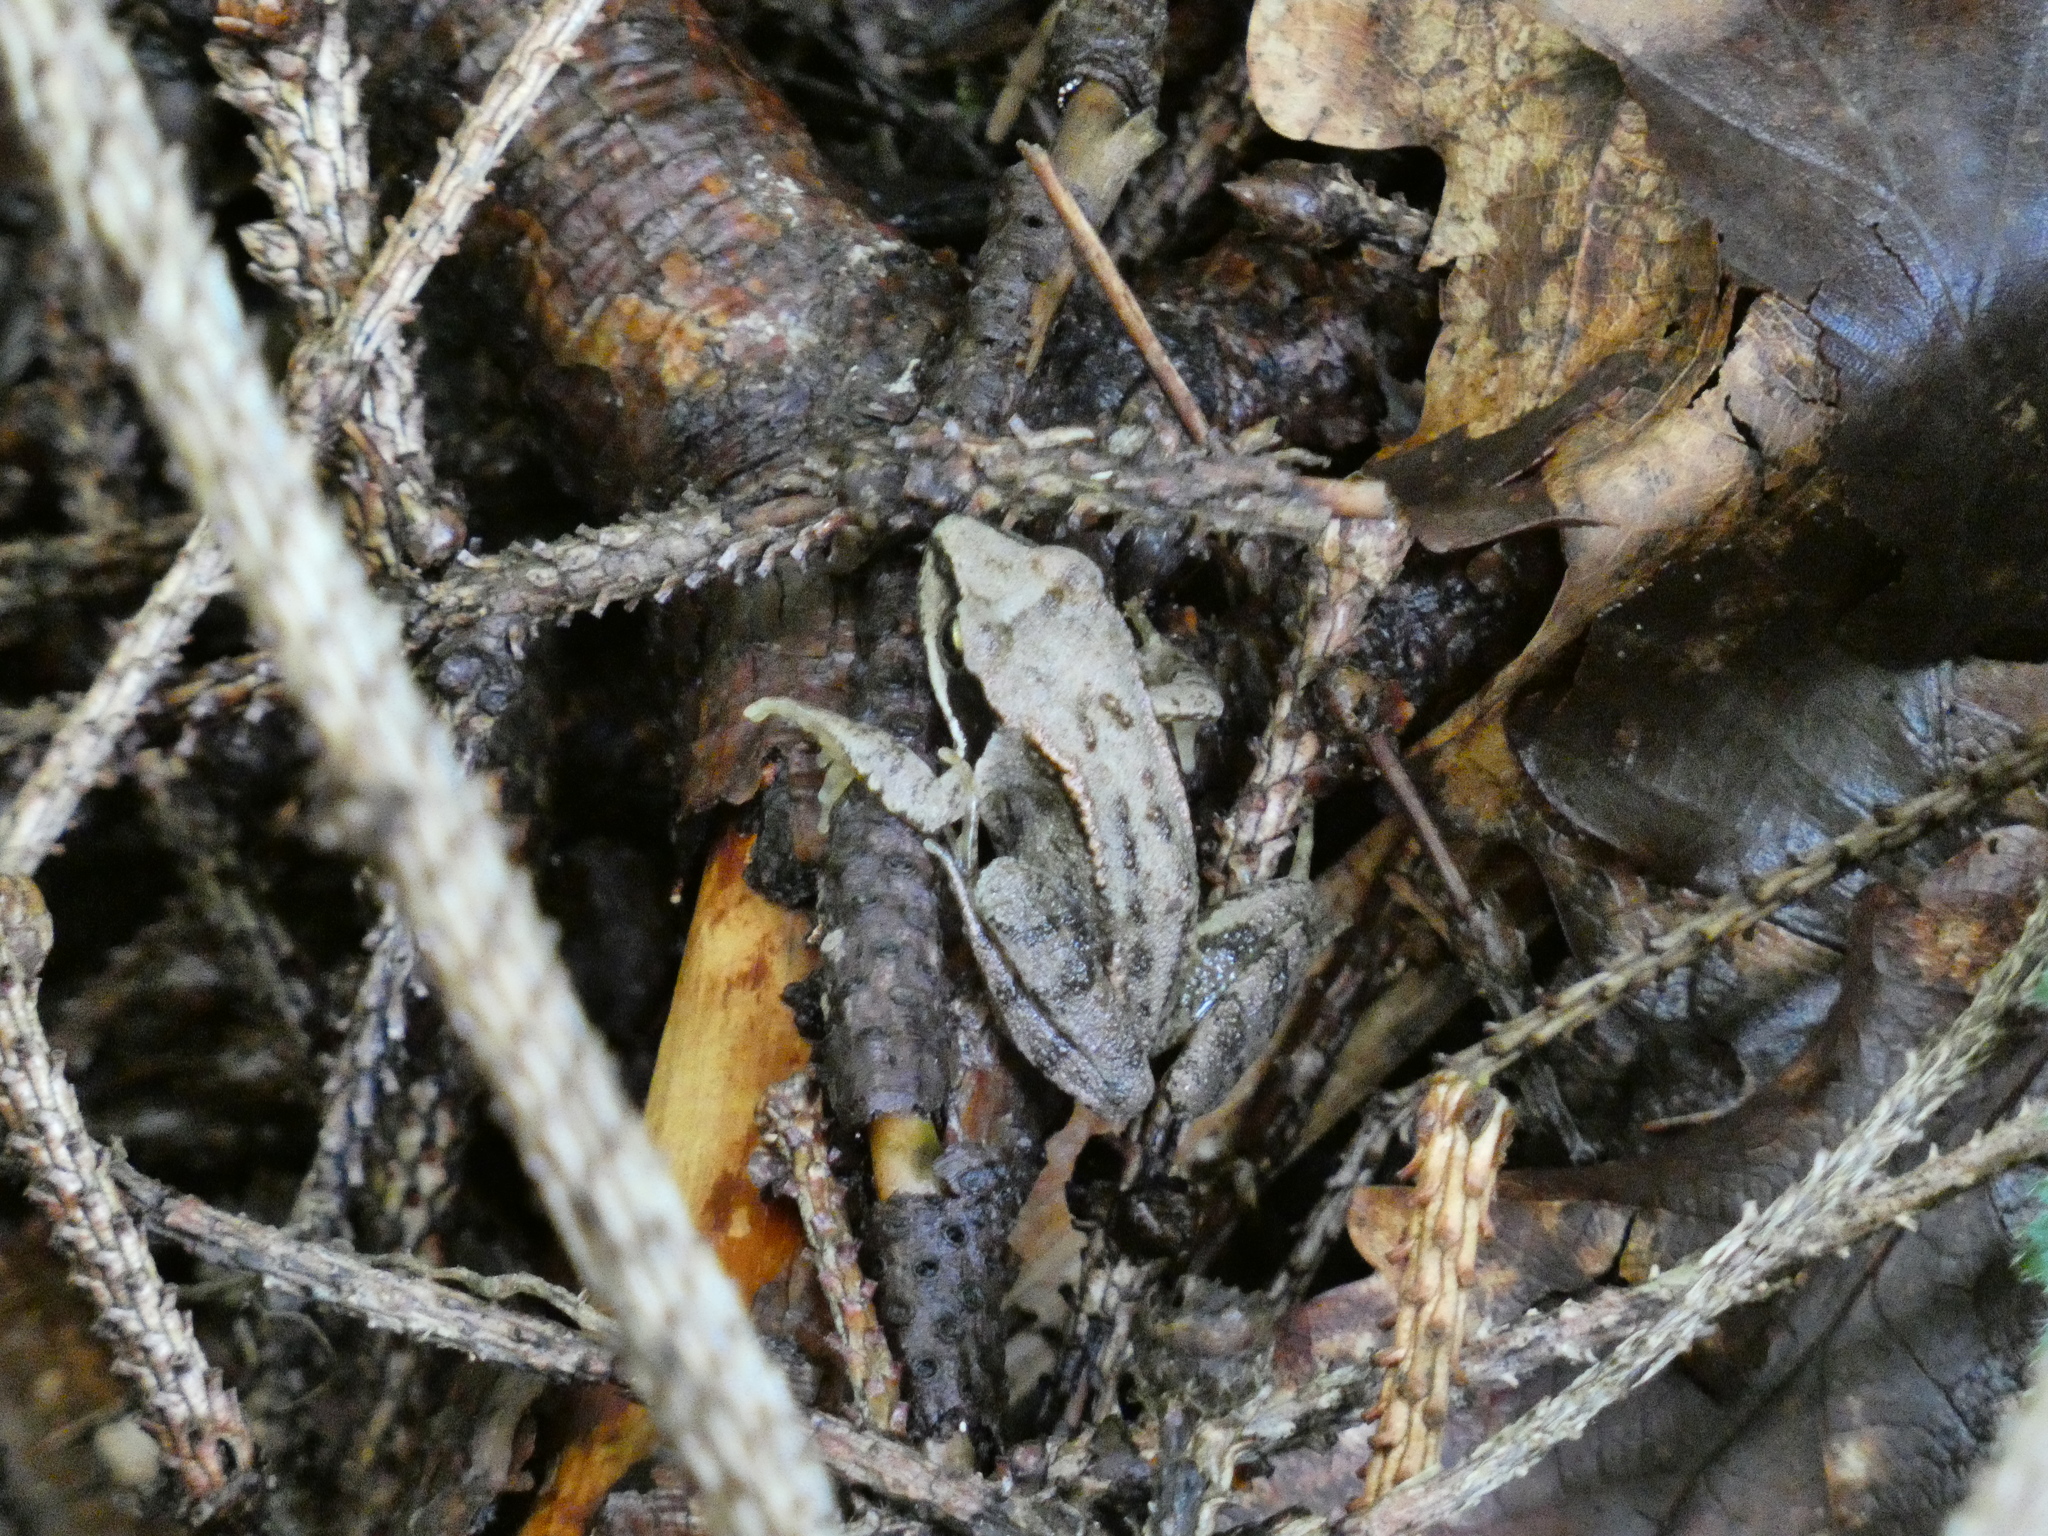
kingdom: Animalia
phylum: Chordata
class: Amphibia
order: Anura
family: Ranidae
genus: Rana
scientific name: Rana temporaria
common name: Common frog
